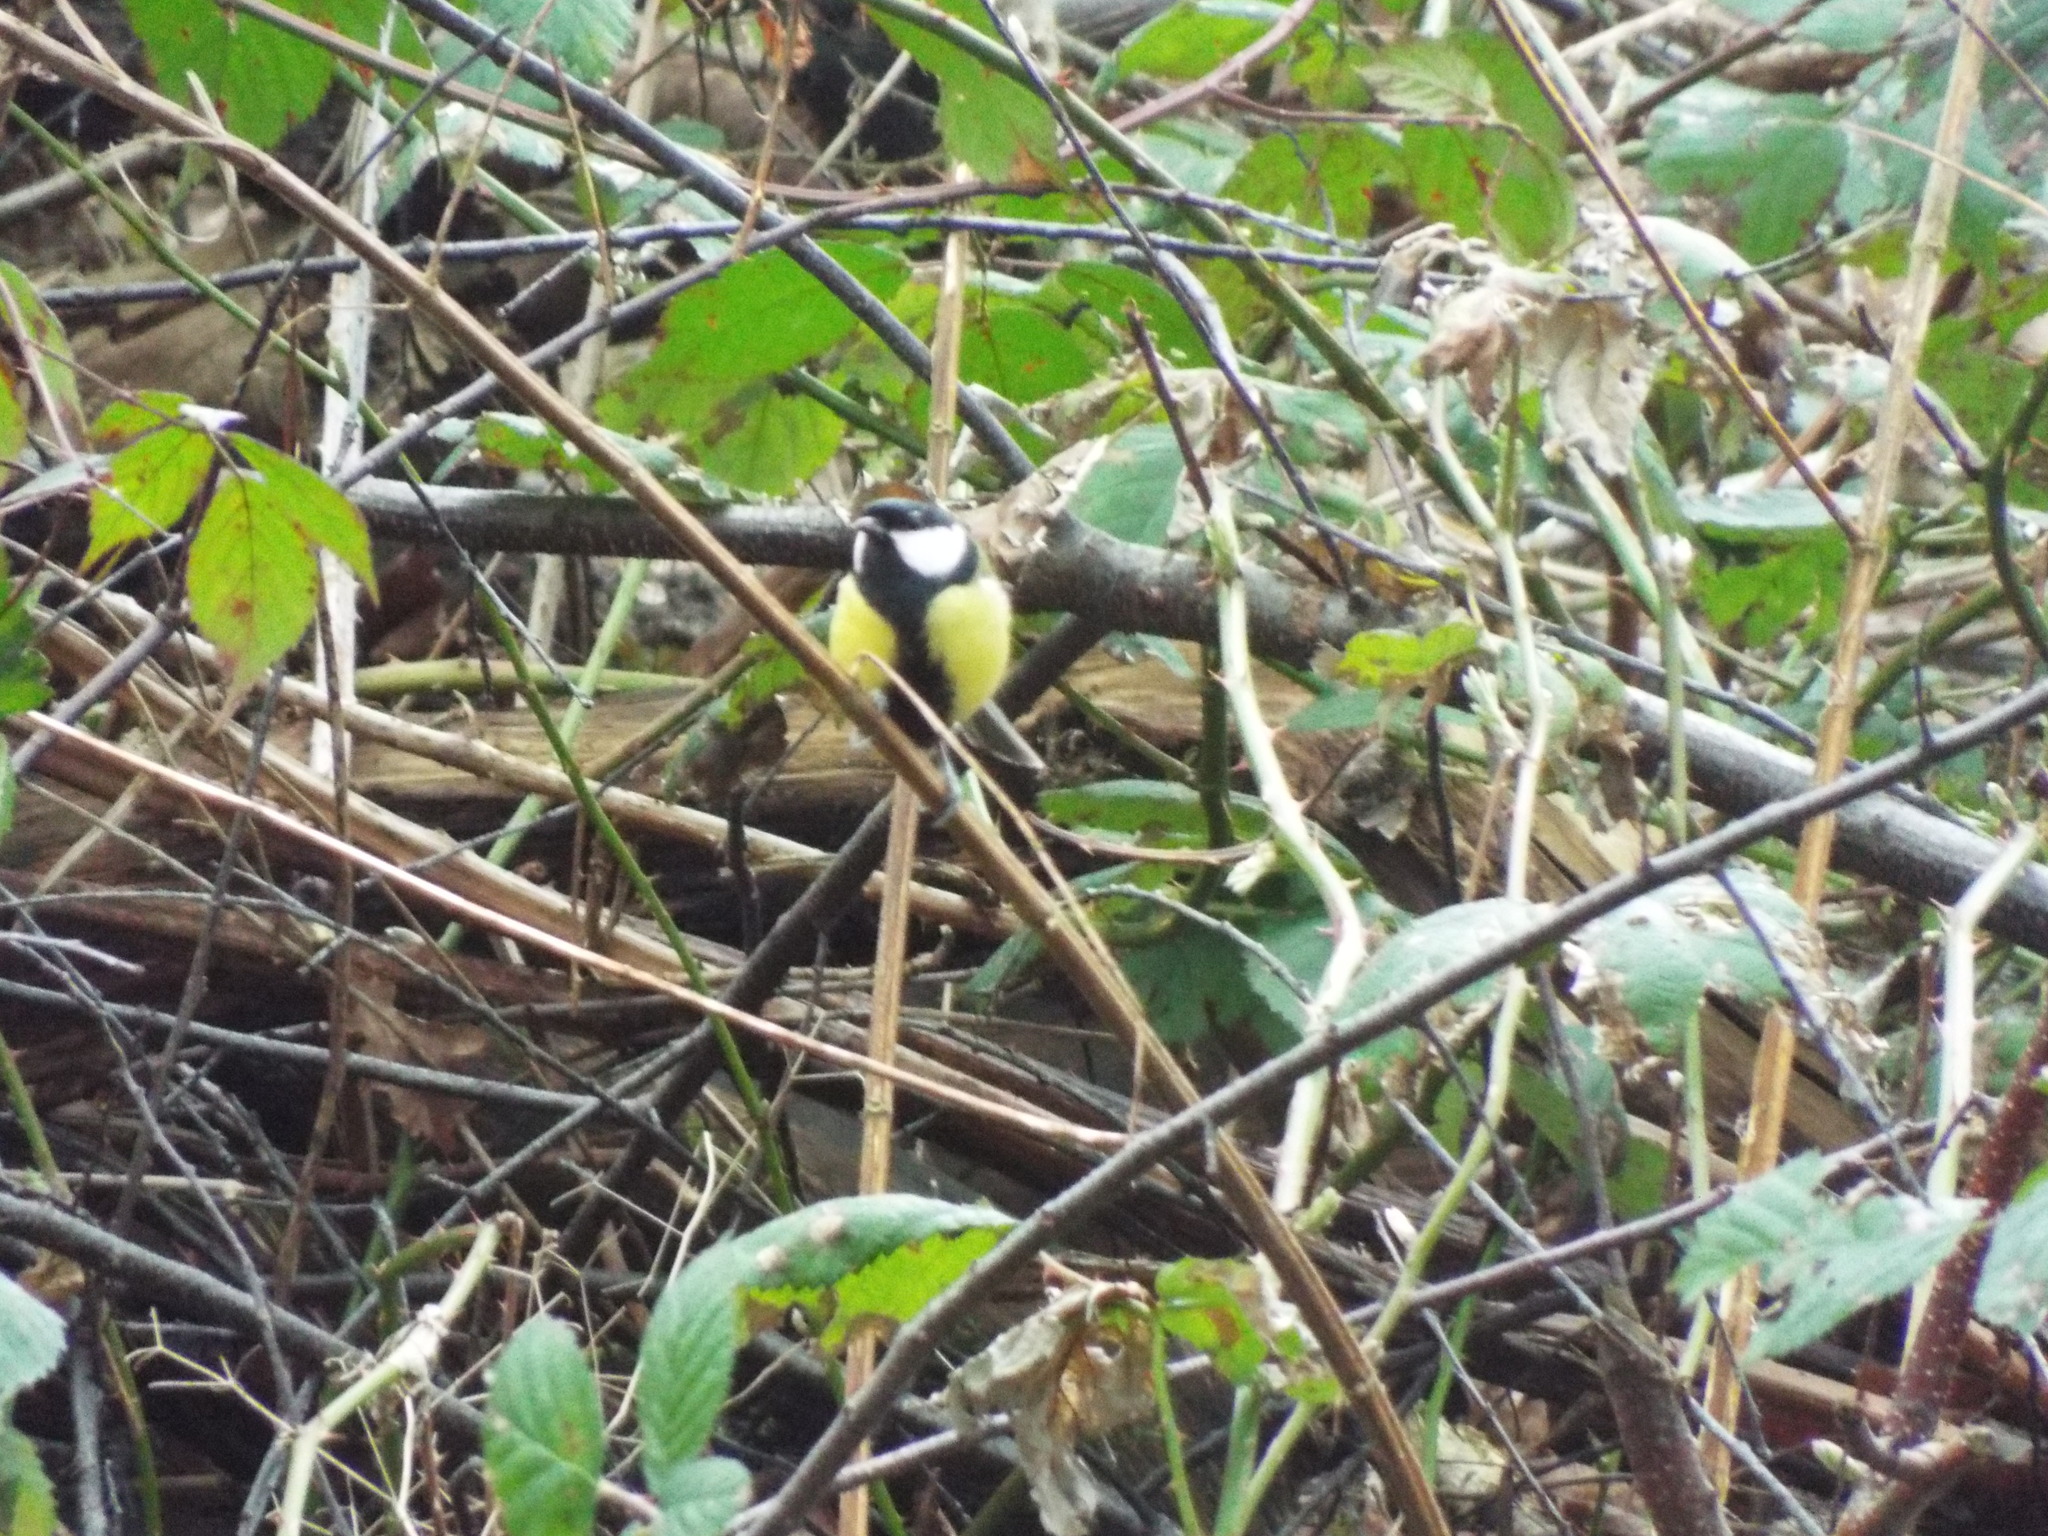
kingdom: Animalia
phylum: Chordata
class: Aves
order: Passeriformes
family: Paridae
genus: Parus
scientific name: Parus major
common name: Great tit
